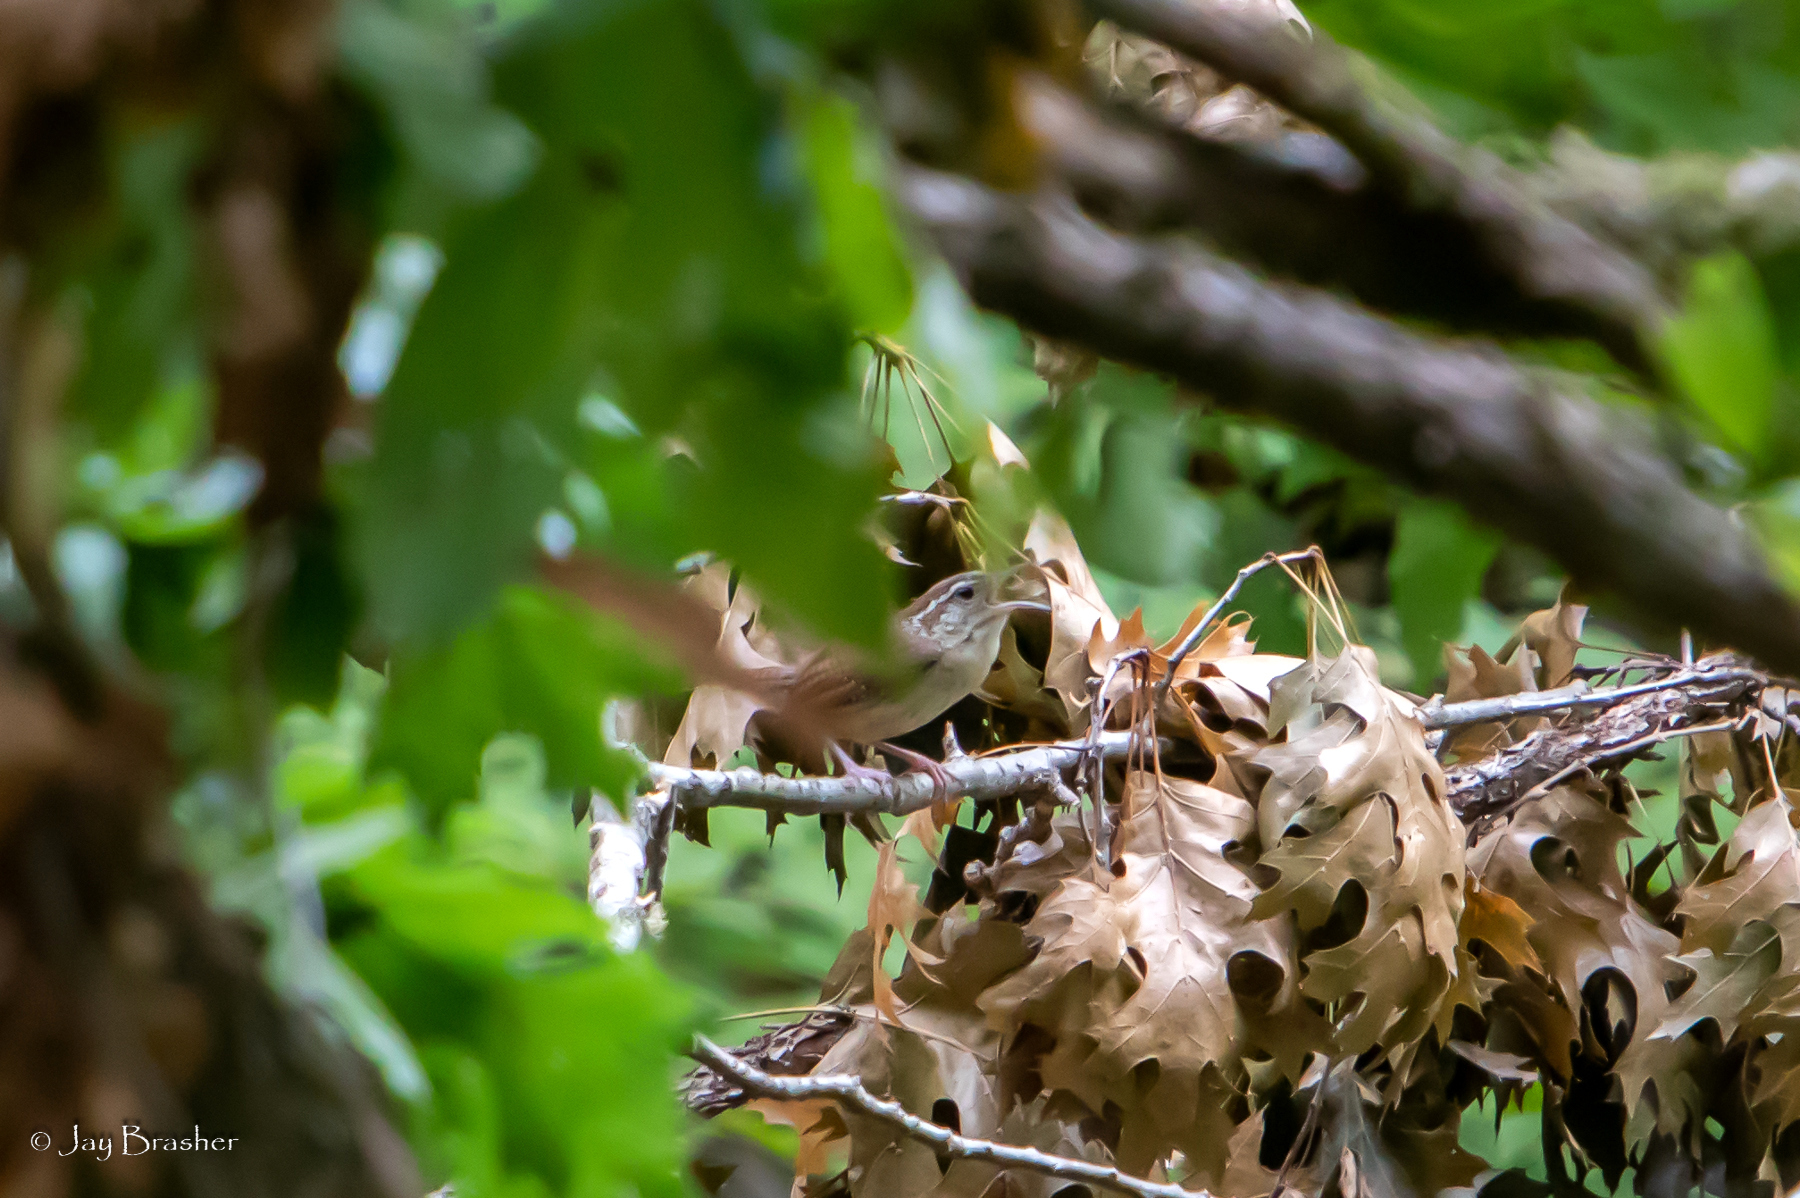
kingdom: Animalia
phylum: Chordata
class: Aves
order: Passeriformes
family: Troglodytidae
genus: Thryothorus
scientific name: Thryothorus ludovicianus
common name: Carolina wren
